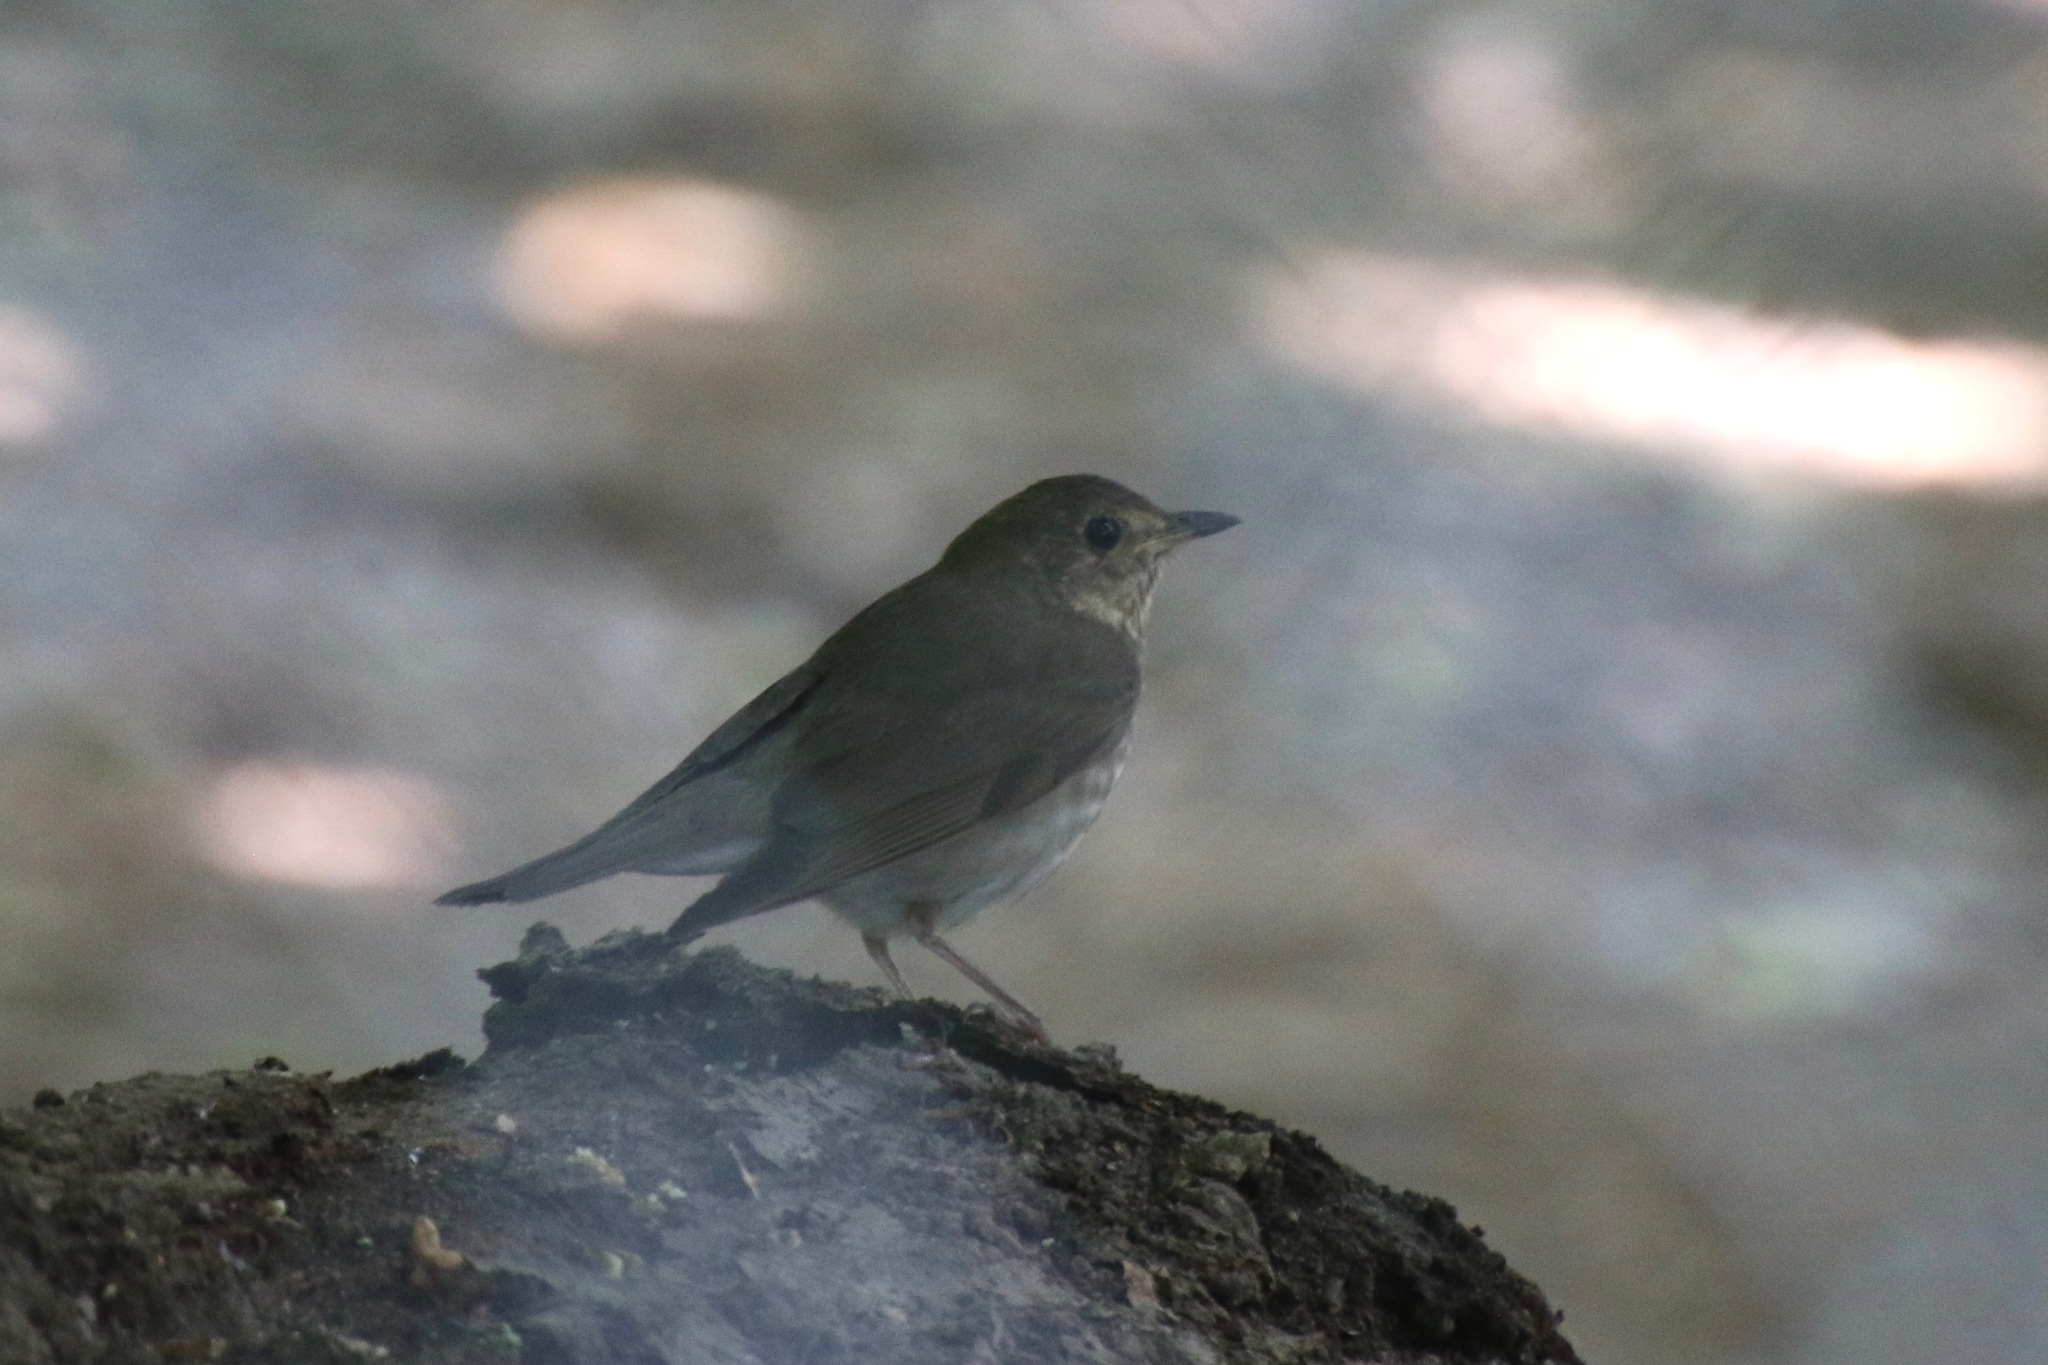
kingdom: Animalia
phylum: Chordata
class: Aves
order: Passeriformes
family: Turdidae
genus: Catharus
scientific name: Catharus minimus
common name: Grey-cheeked thrush
